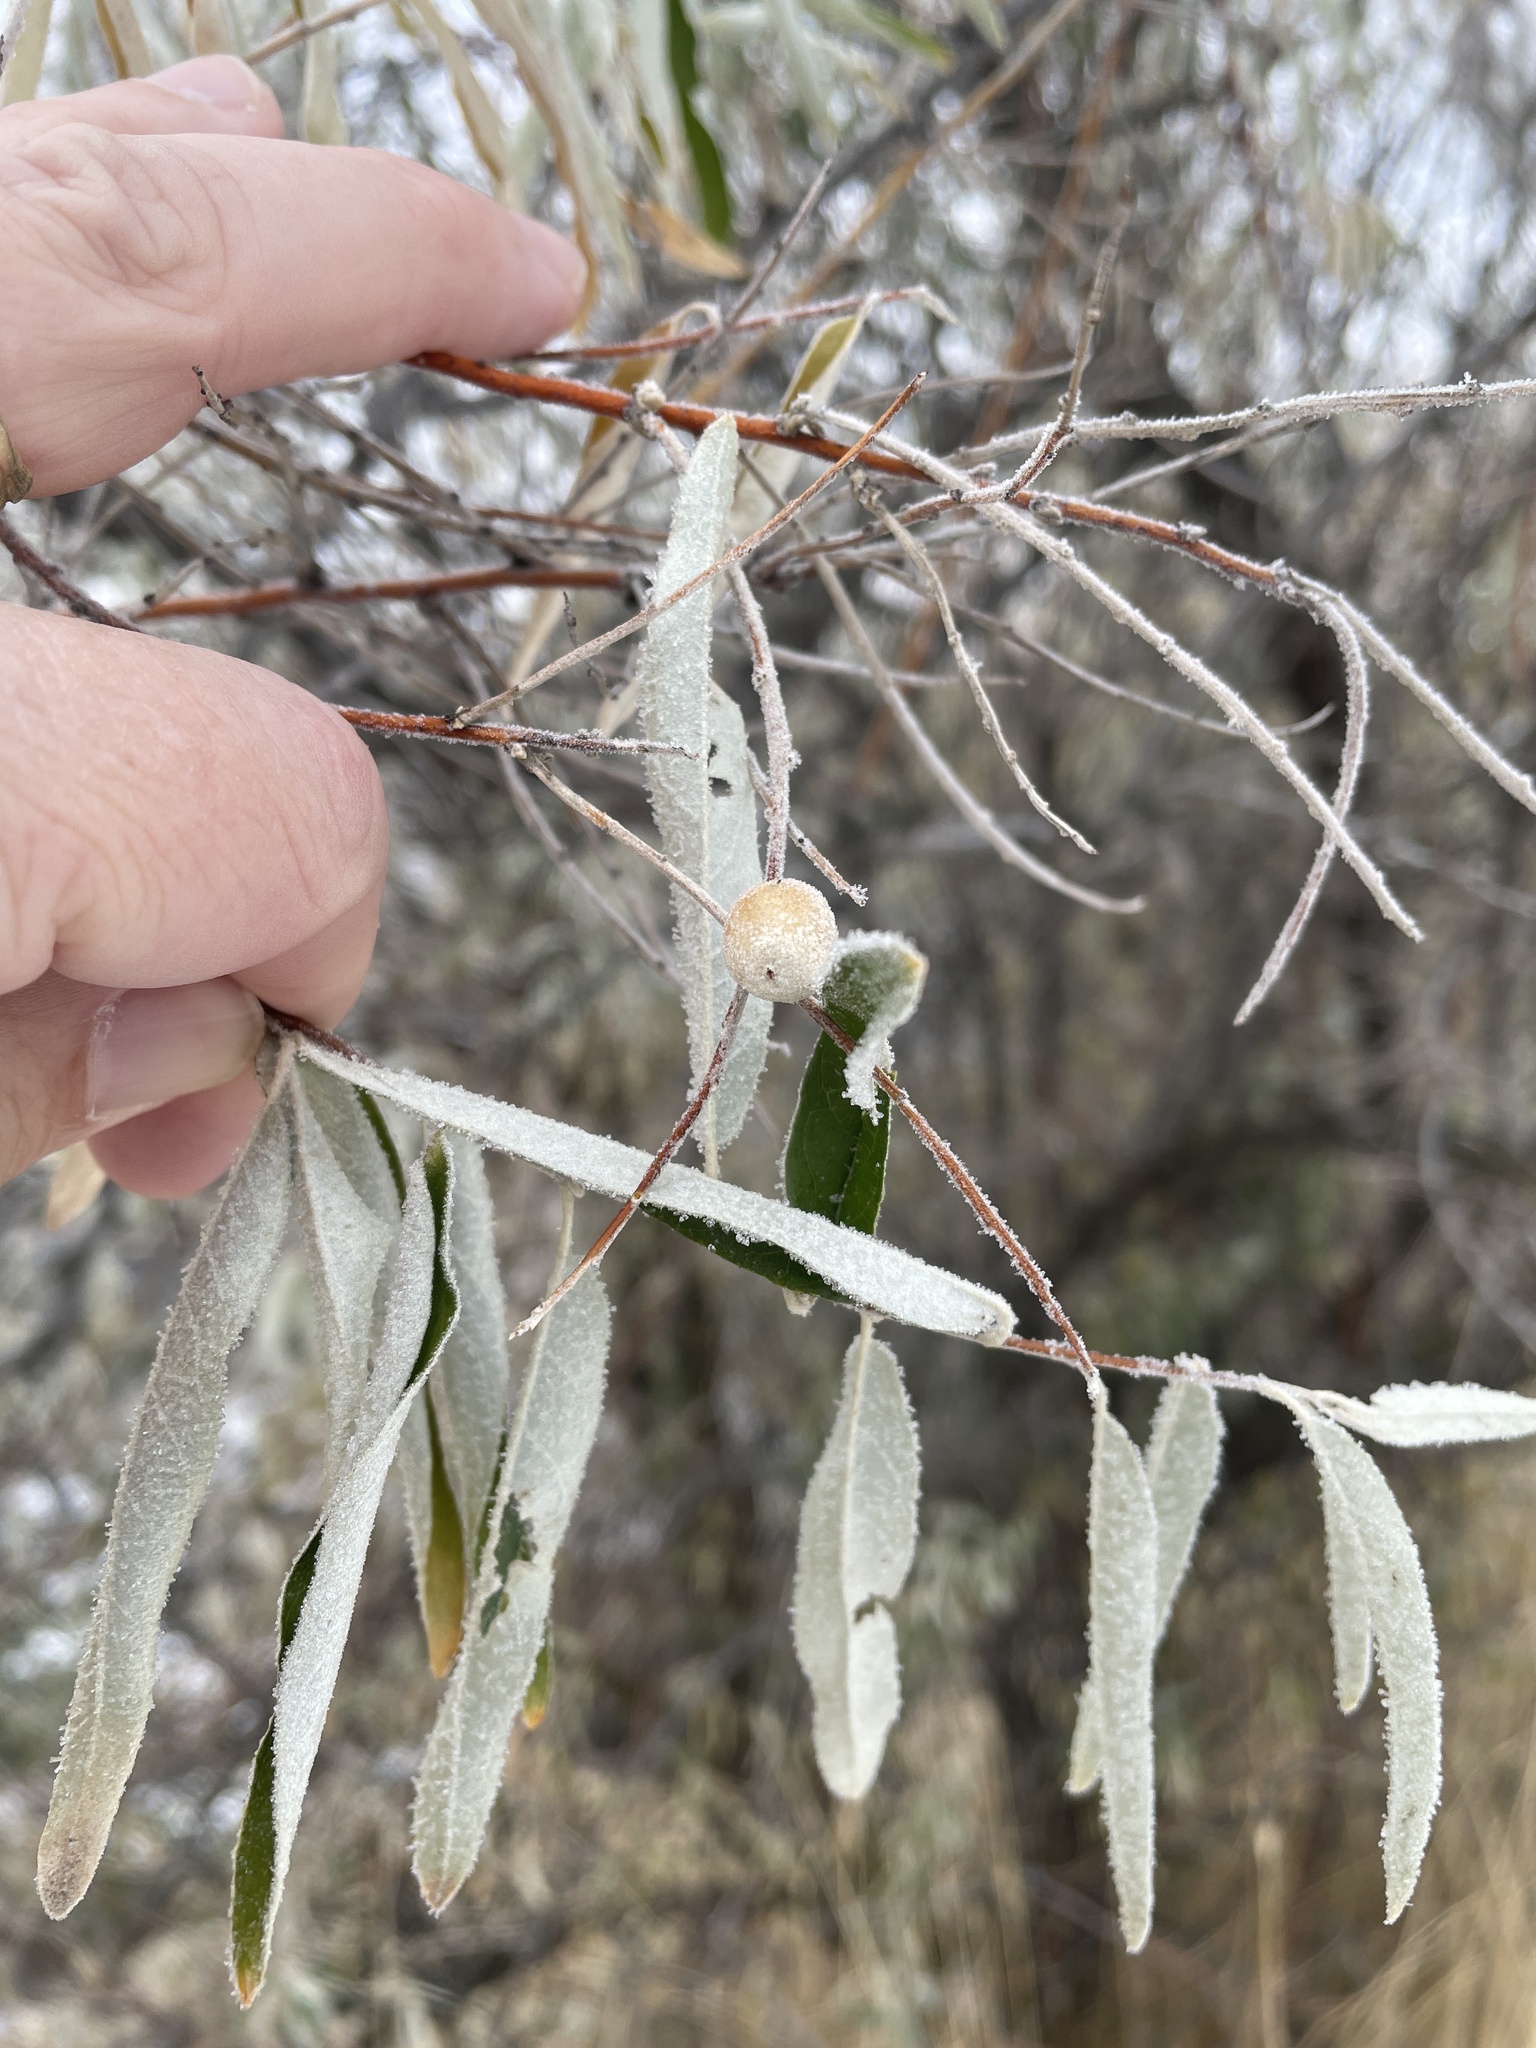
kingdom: Plantae
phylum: Tracheophyta
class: Magnoliopsida
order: Rosales
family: Elaeagnaceae
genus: Elaeagnus
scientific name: Elaeagnus angustifolia
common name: Russian olive
